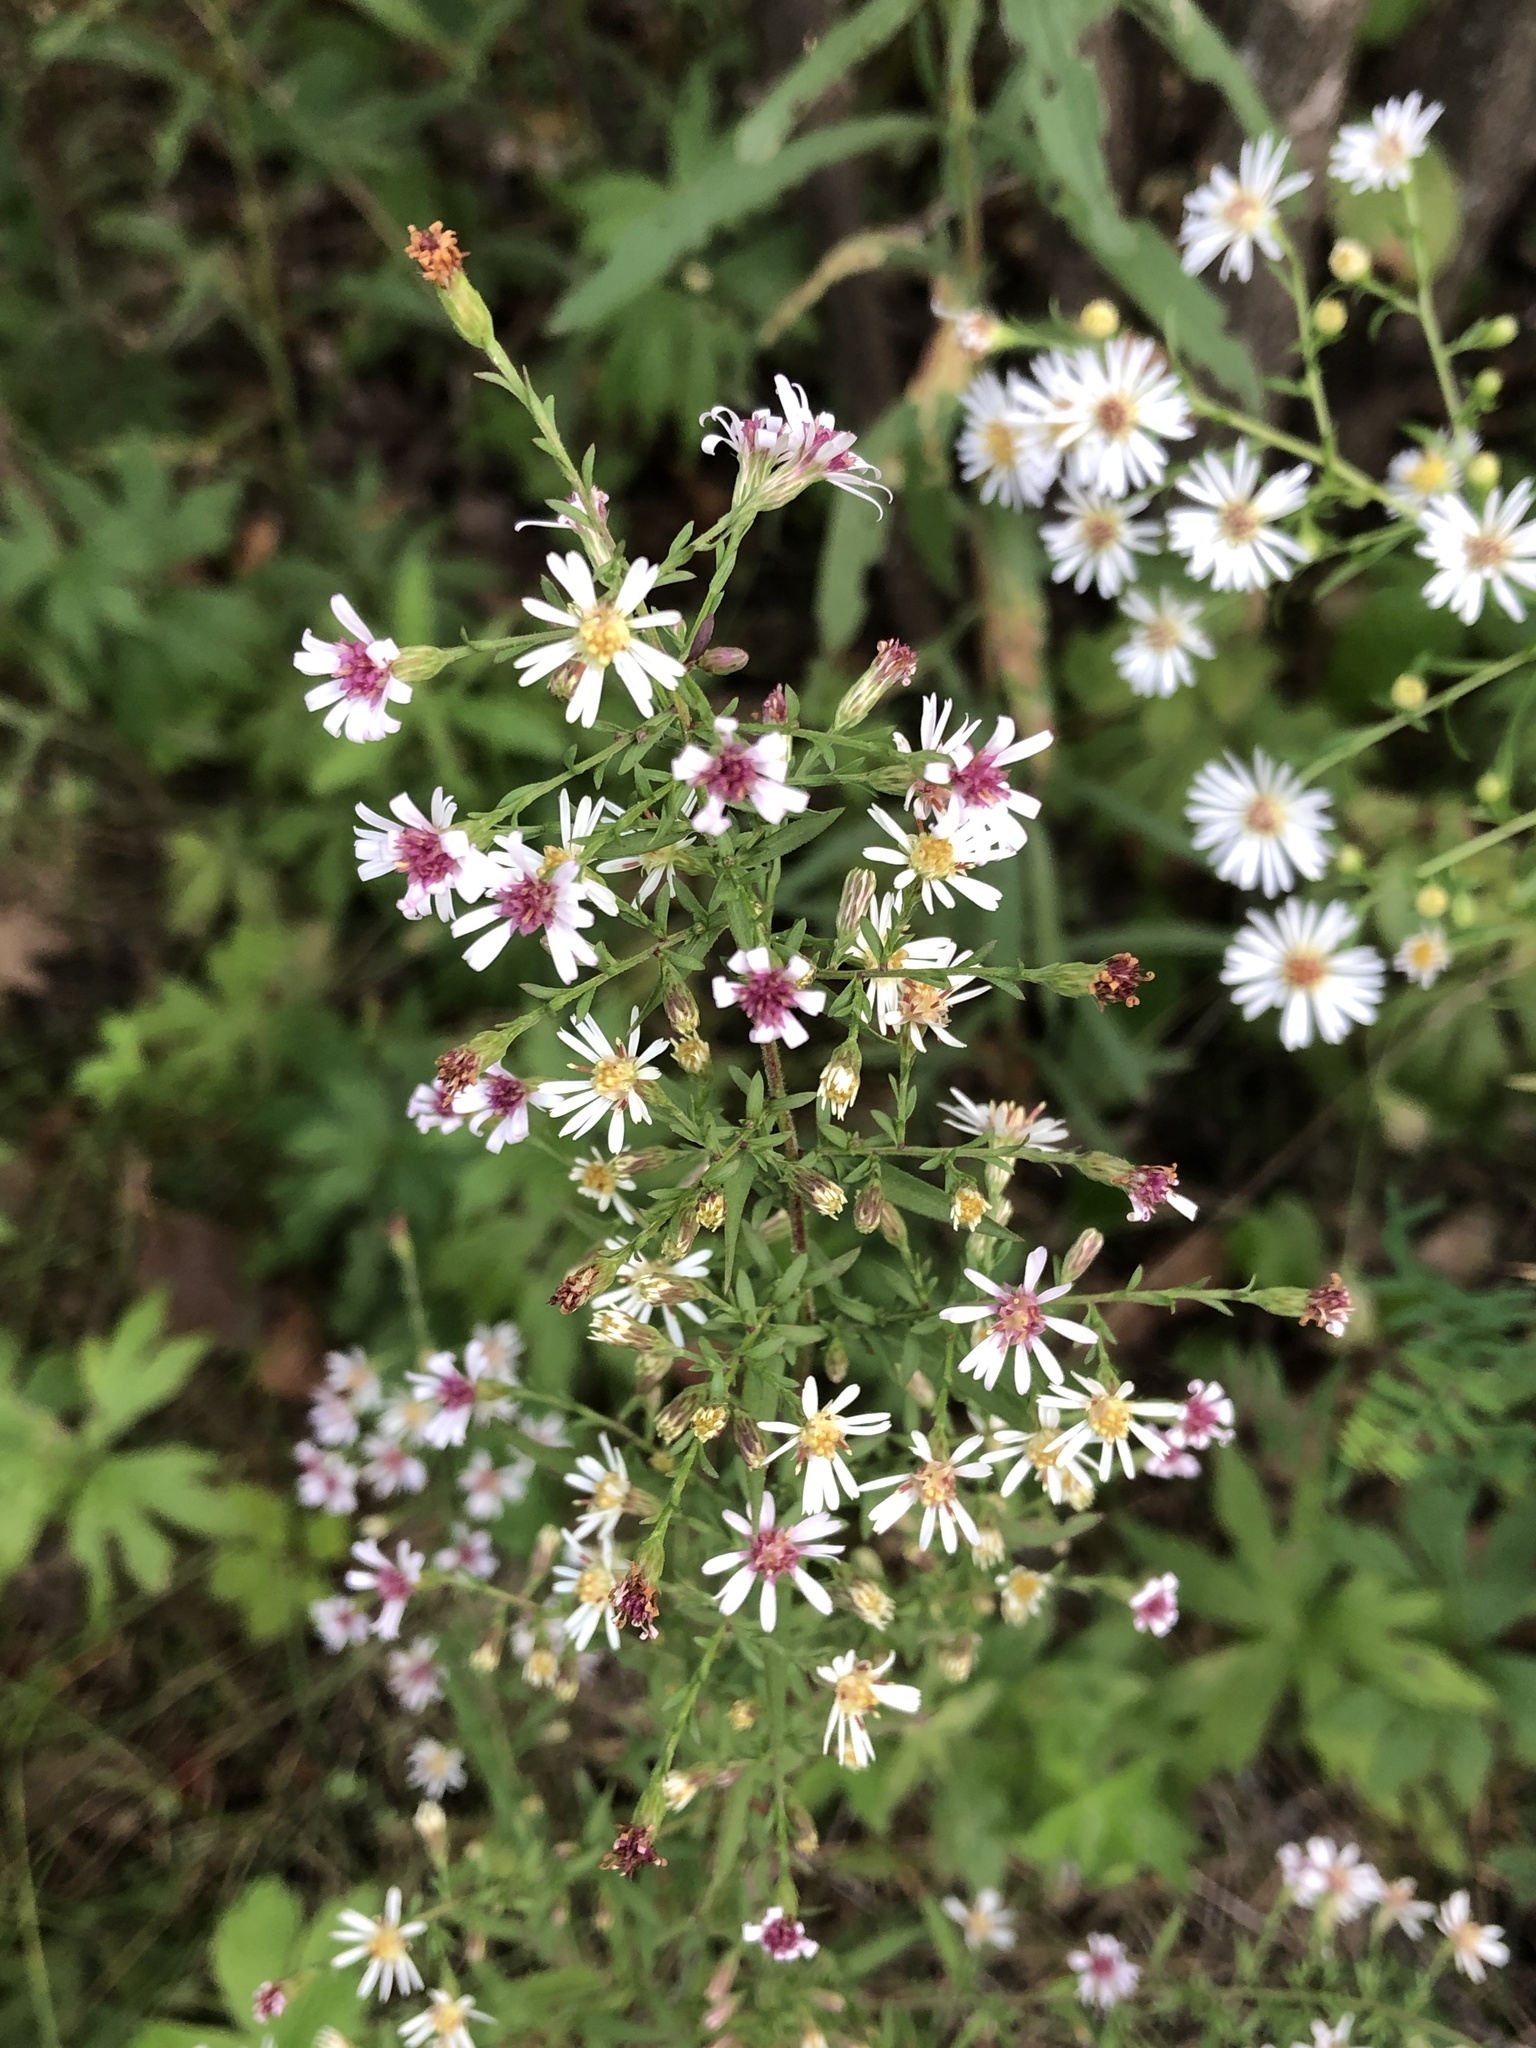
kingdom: Plantae
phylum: Tracheophyta
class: Magnoliopsida
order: Asterales
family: Asteraceae
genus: Symphyotrichum
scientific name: Symphyotrichum lateriflorum
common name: Calico aster
